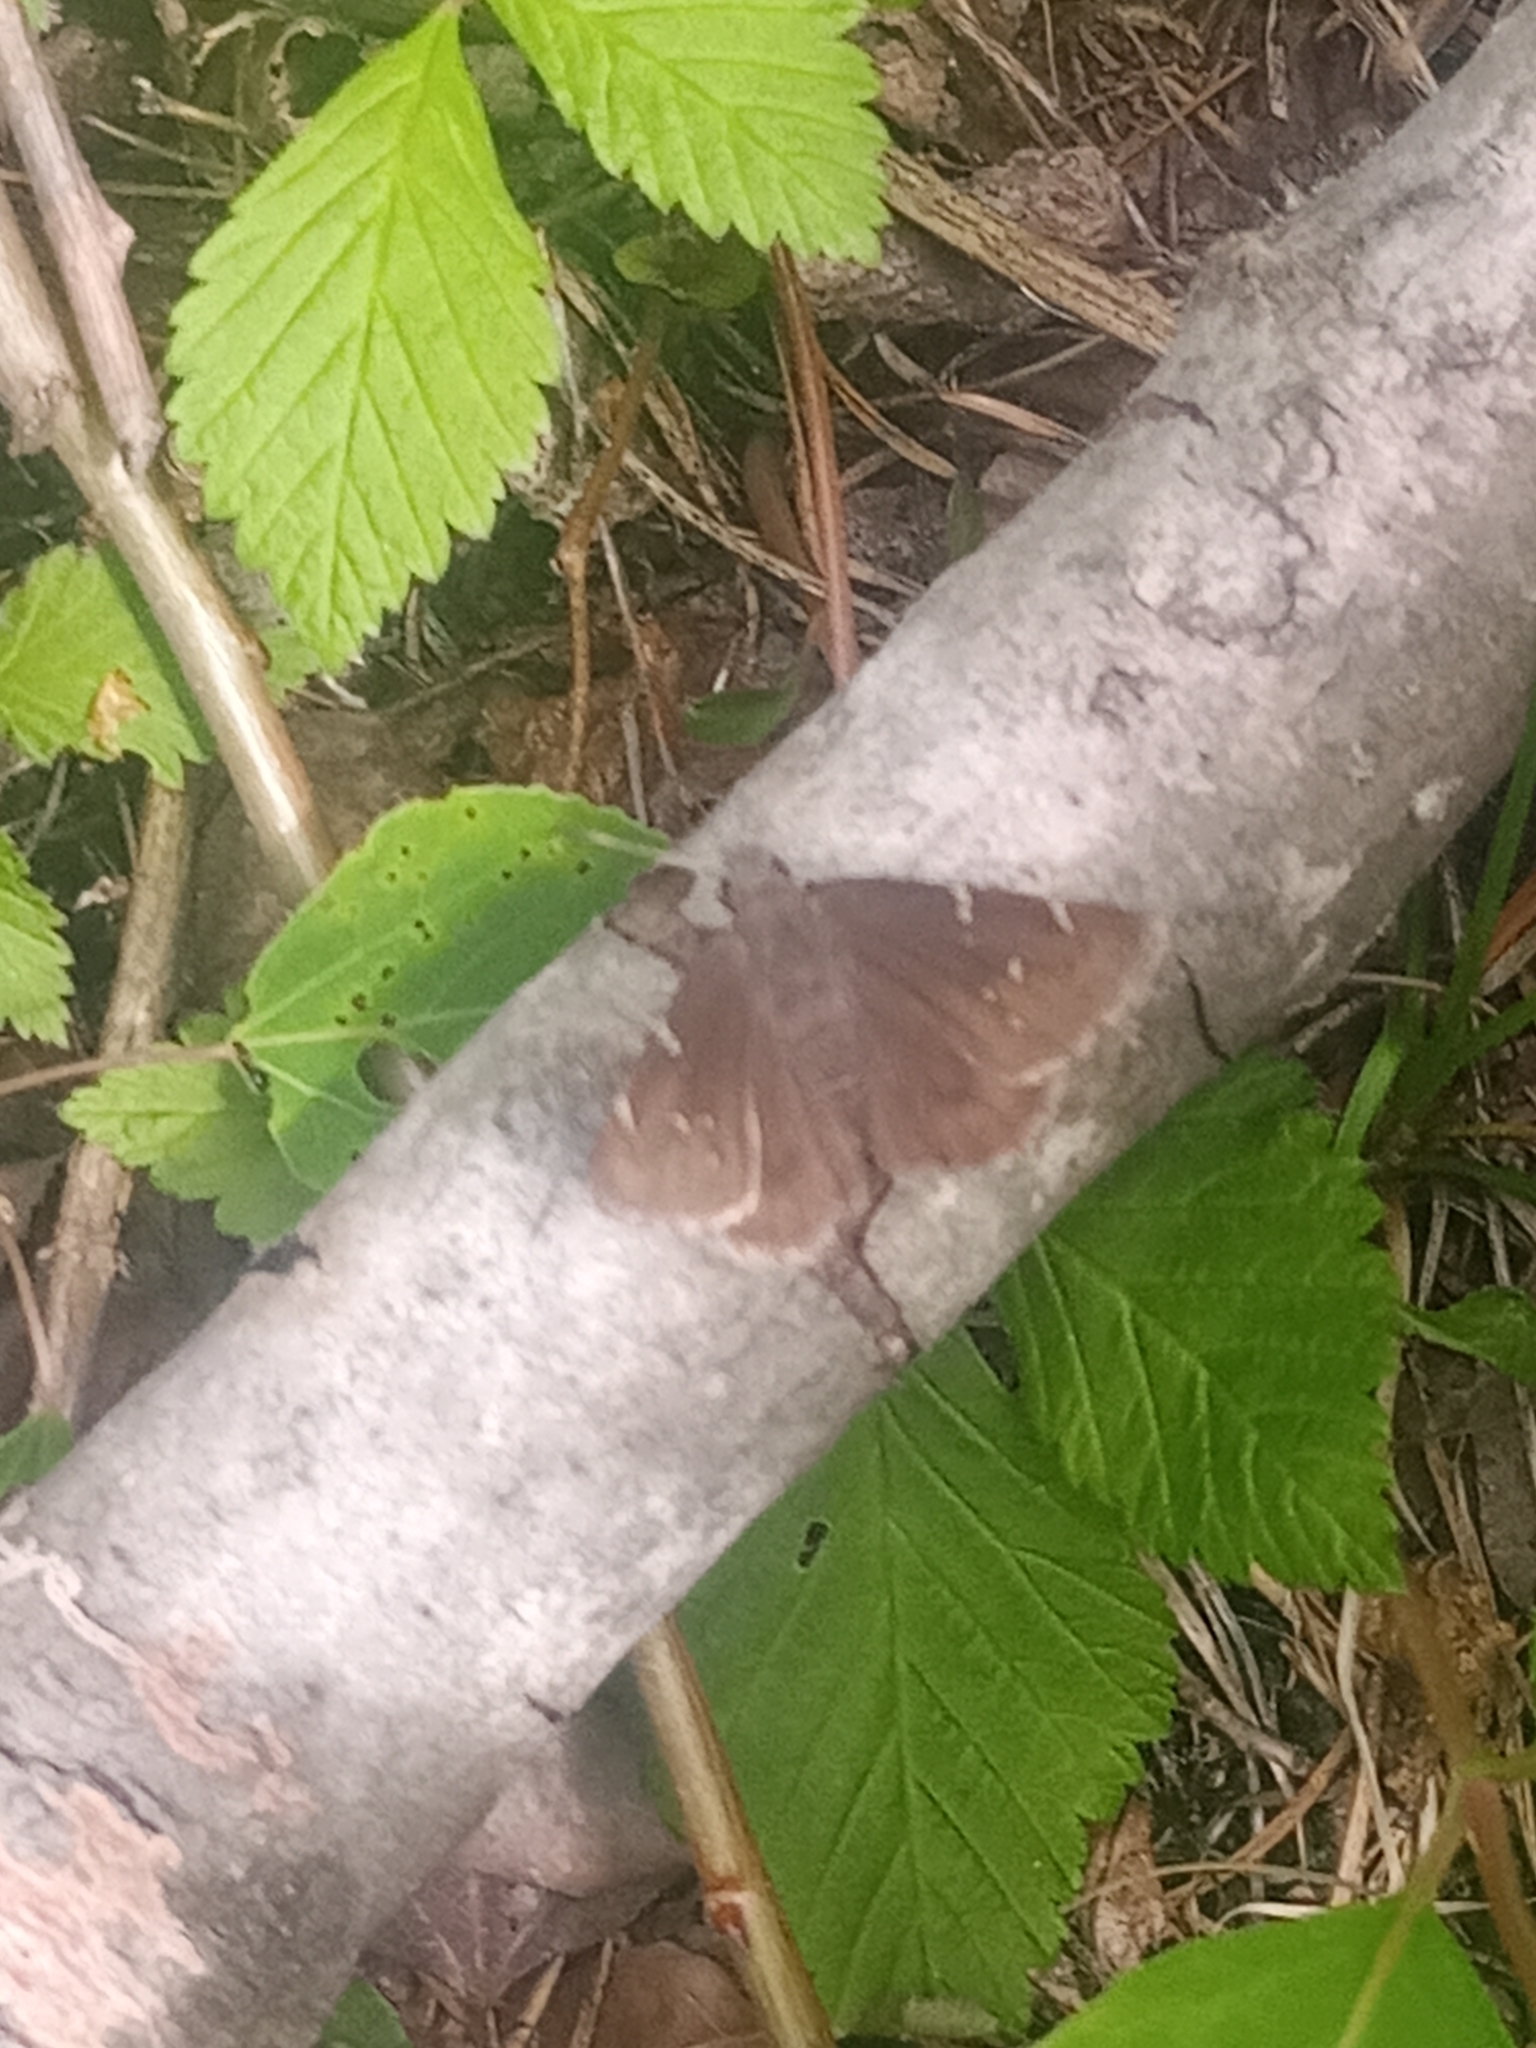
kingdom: Animalia
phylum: Arthropoda
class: Insecta
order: Lepidoptera
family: Hesperiidae
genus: Thorybes
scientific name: Thorybes pylades
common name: Northern cloudywing
